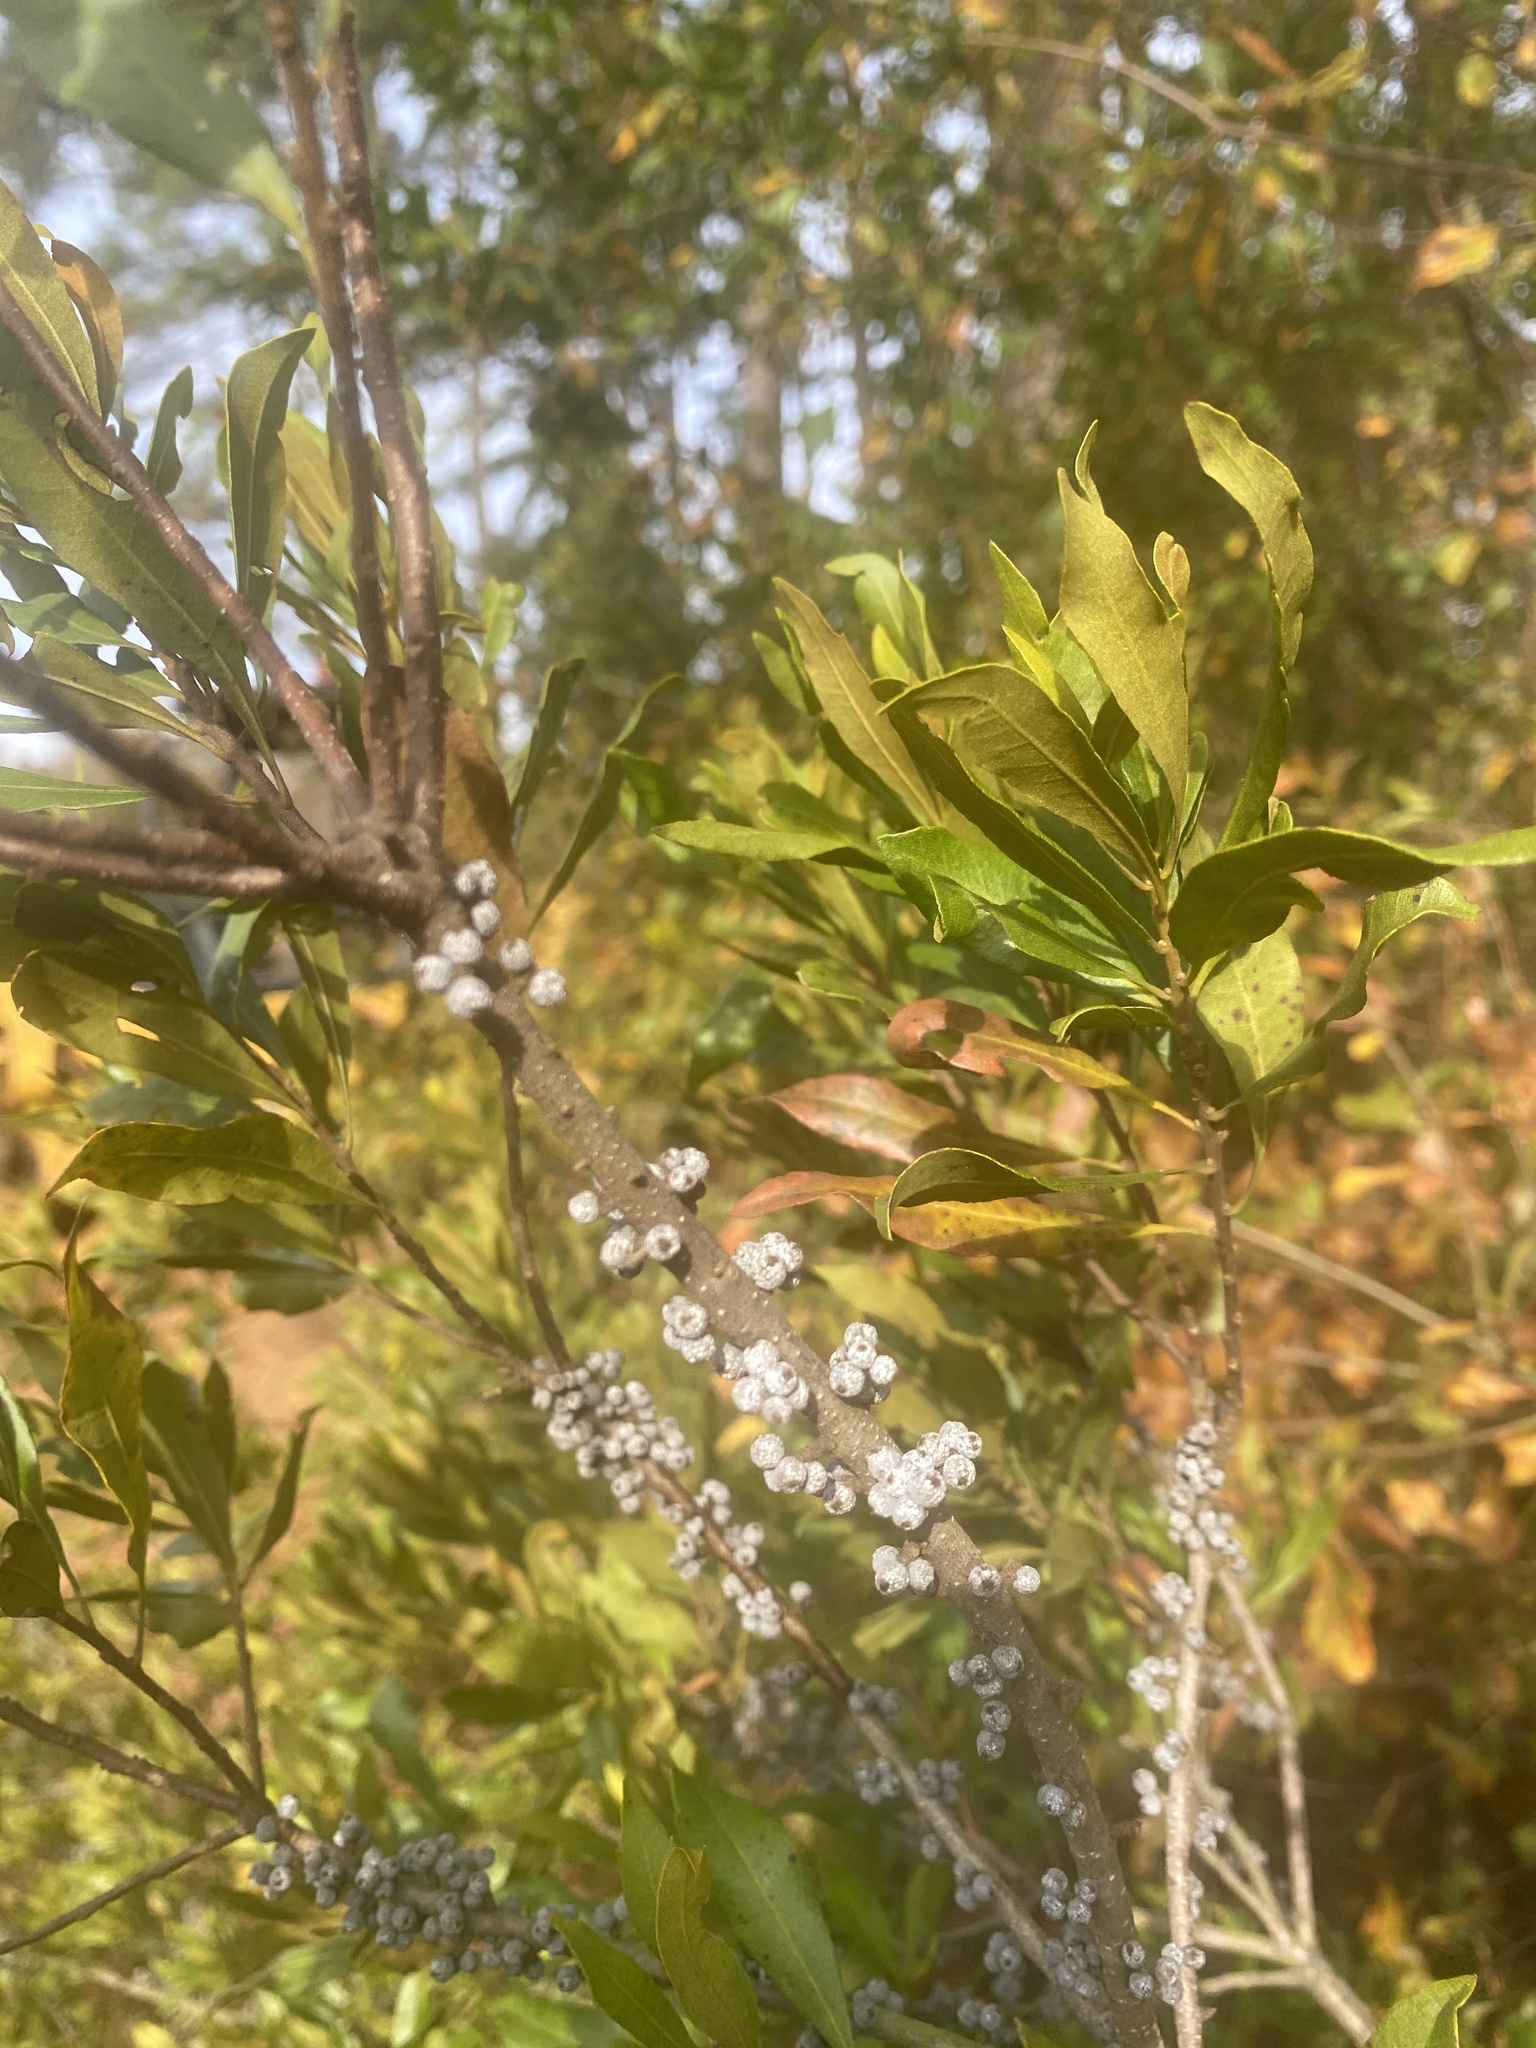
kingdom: Plantae
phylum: Tracheophyta
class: Magnoliopsida
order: Fagales
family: Myricaceae
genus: Morella
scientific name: Morella cerifera
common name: Wax myrtle
